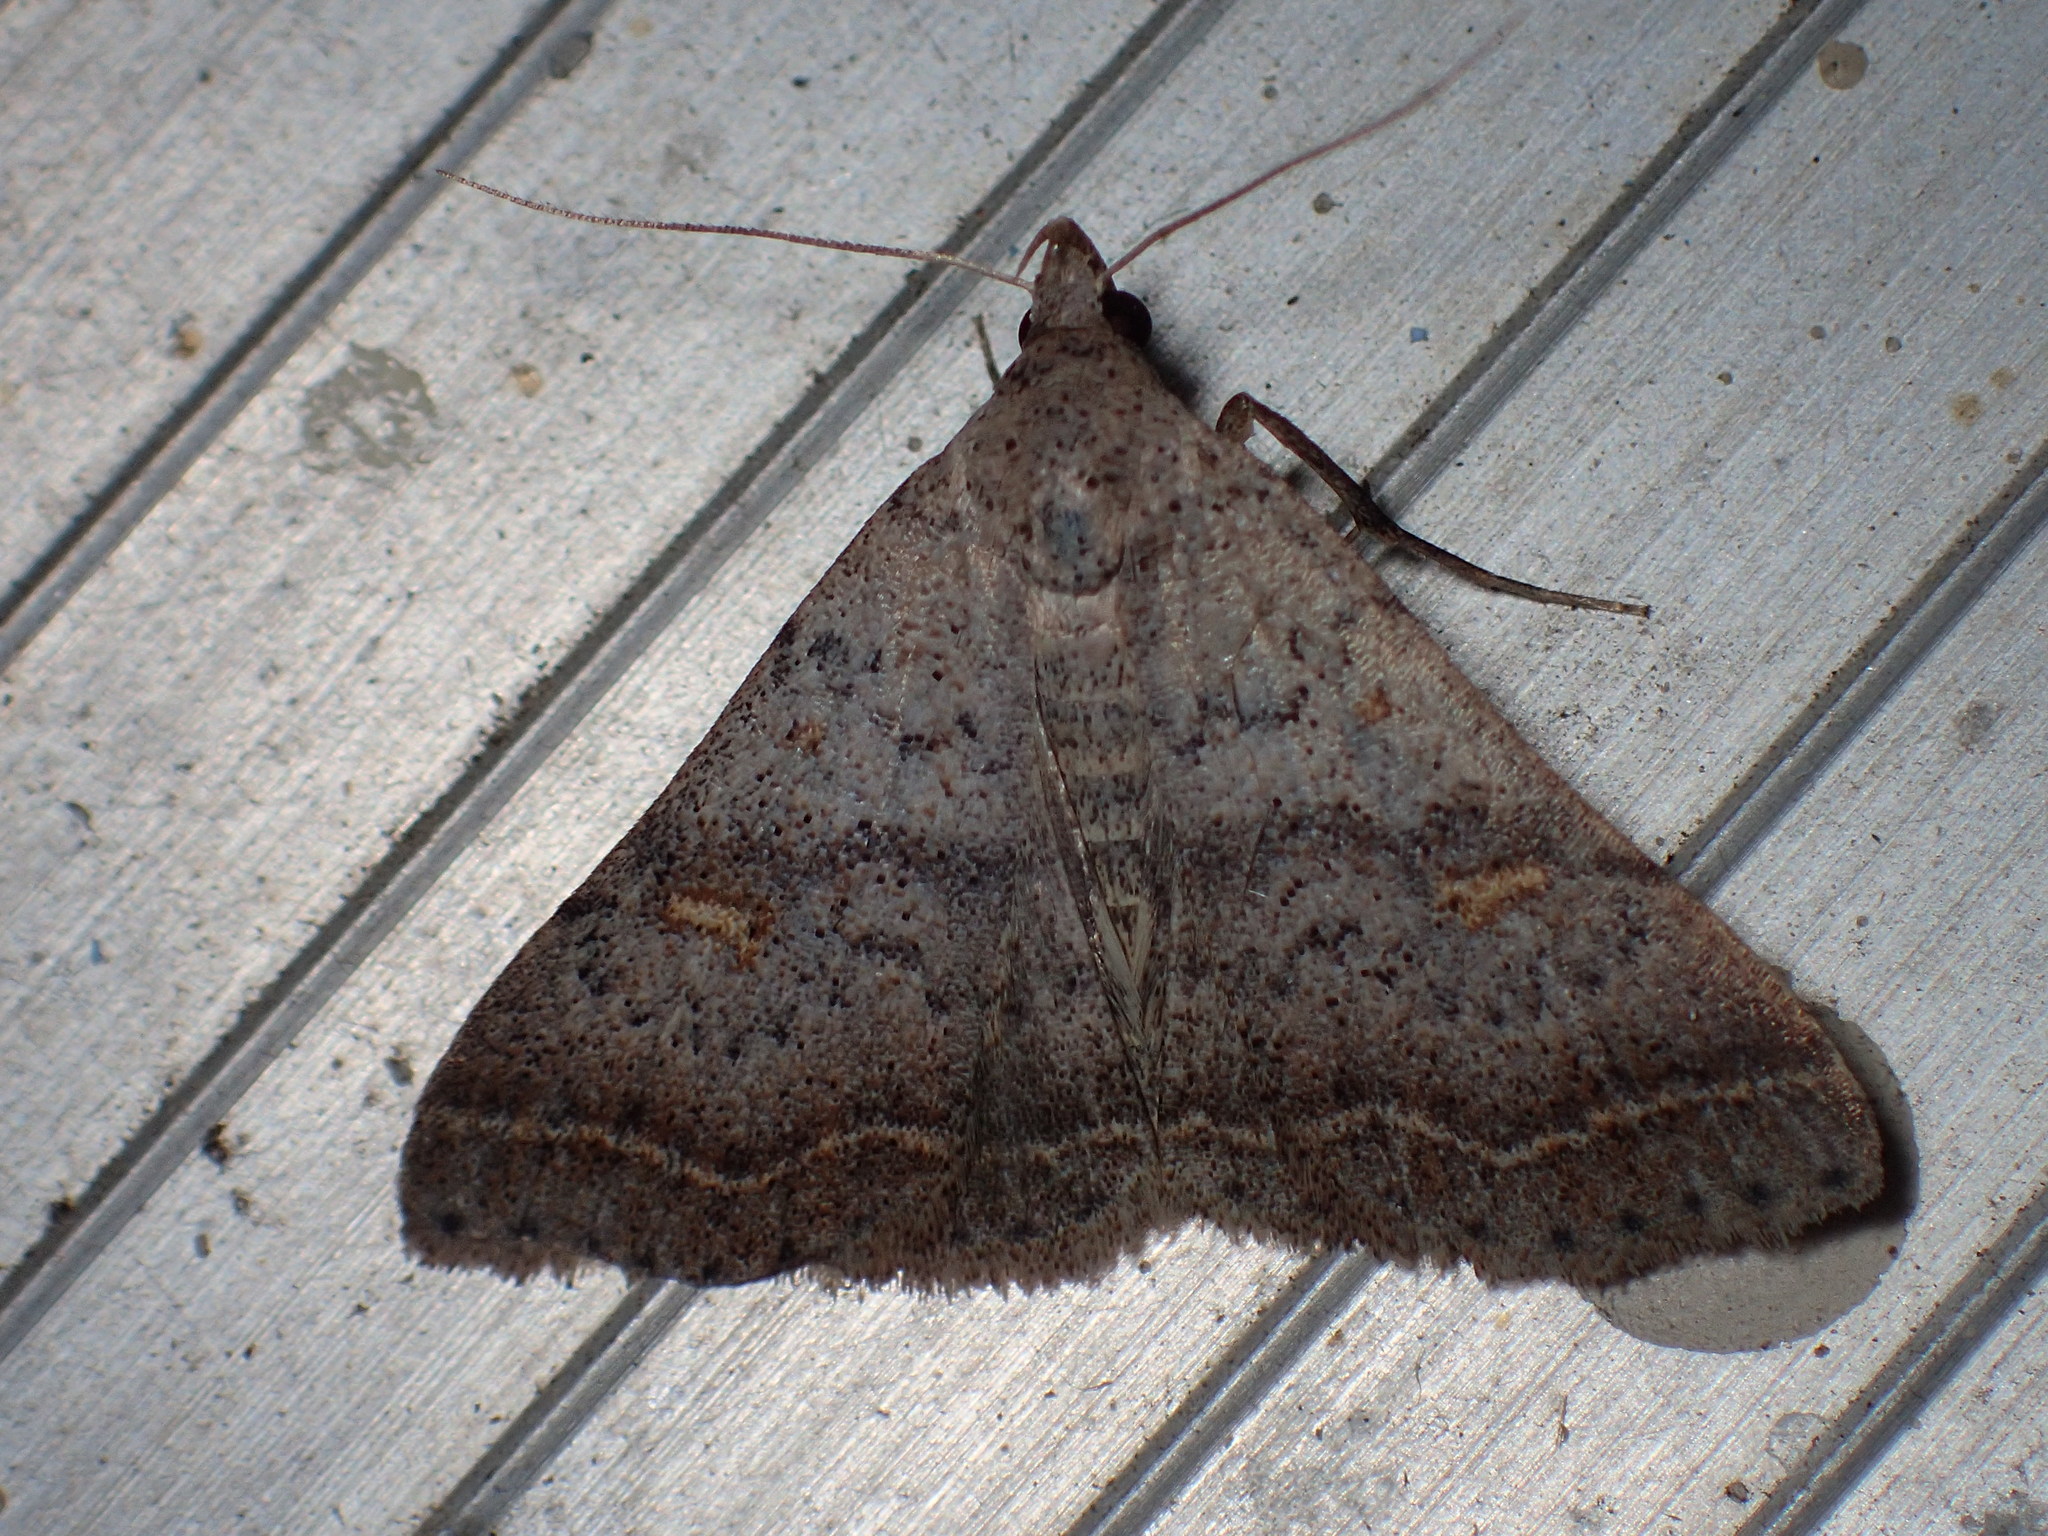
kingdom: Animalia
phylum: Arthropoda
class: Insecta
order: Lepidoptera
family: Erebidae
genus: Bleptina
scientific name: Bleptina caradrinalis
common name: Bent-winged owlet
